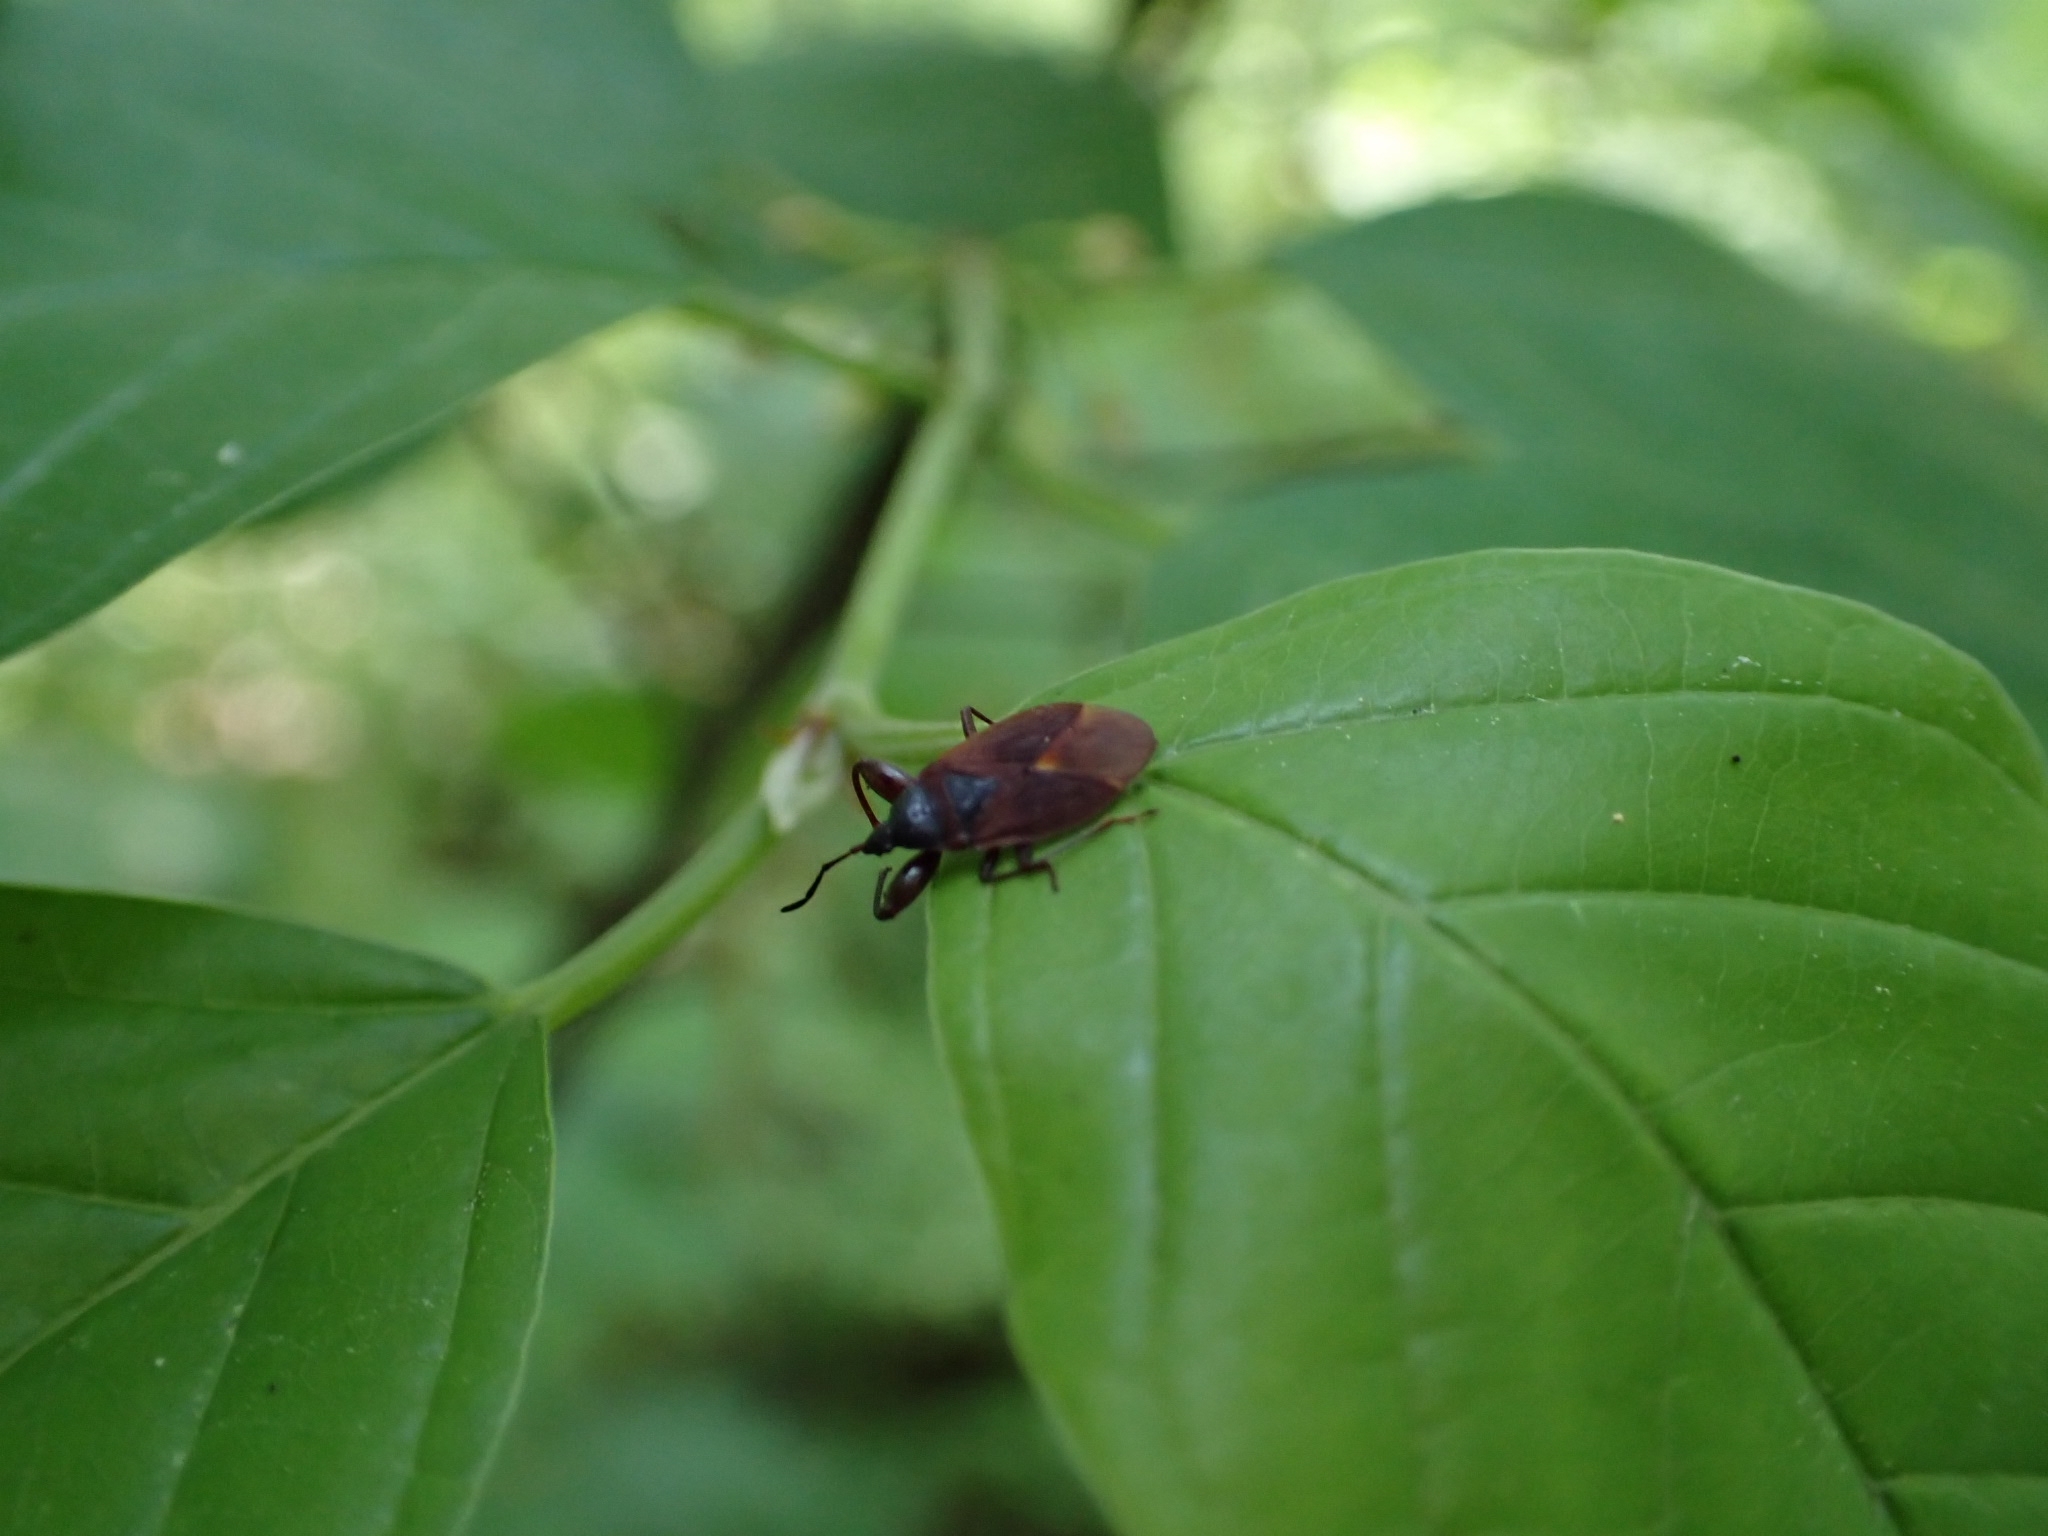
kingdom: Animalia
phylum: Arthropoda
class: Insecta
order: Hemiptera
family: Rhyparochromidae
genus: Gastrodes
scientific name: Gastrodes grossipes
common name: Pine cone bug
